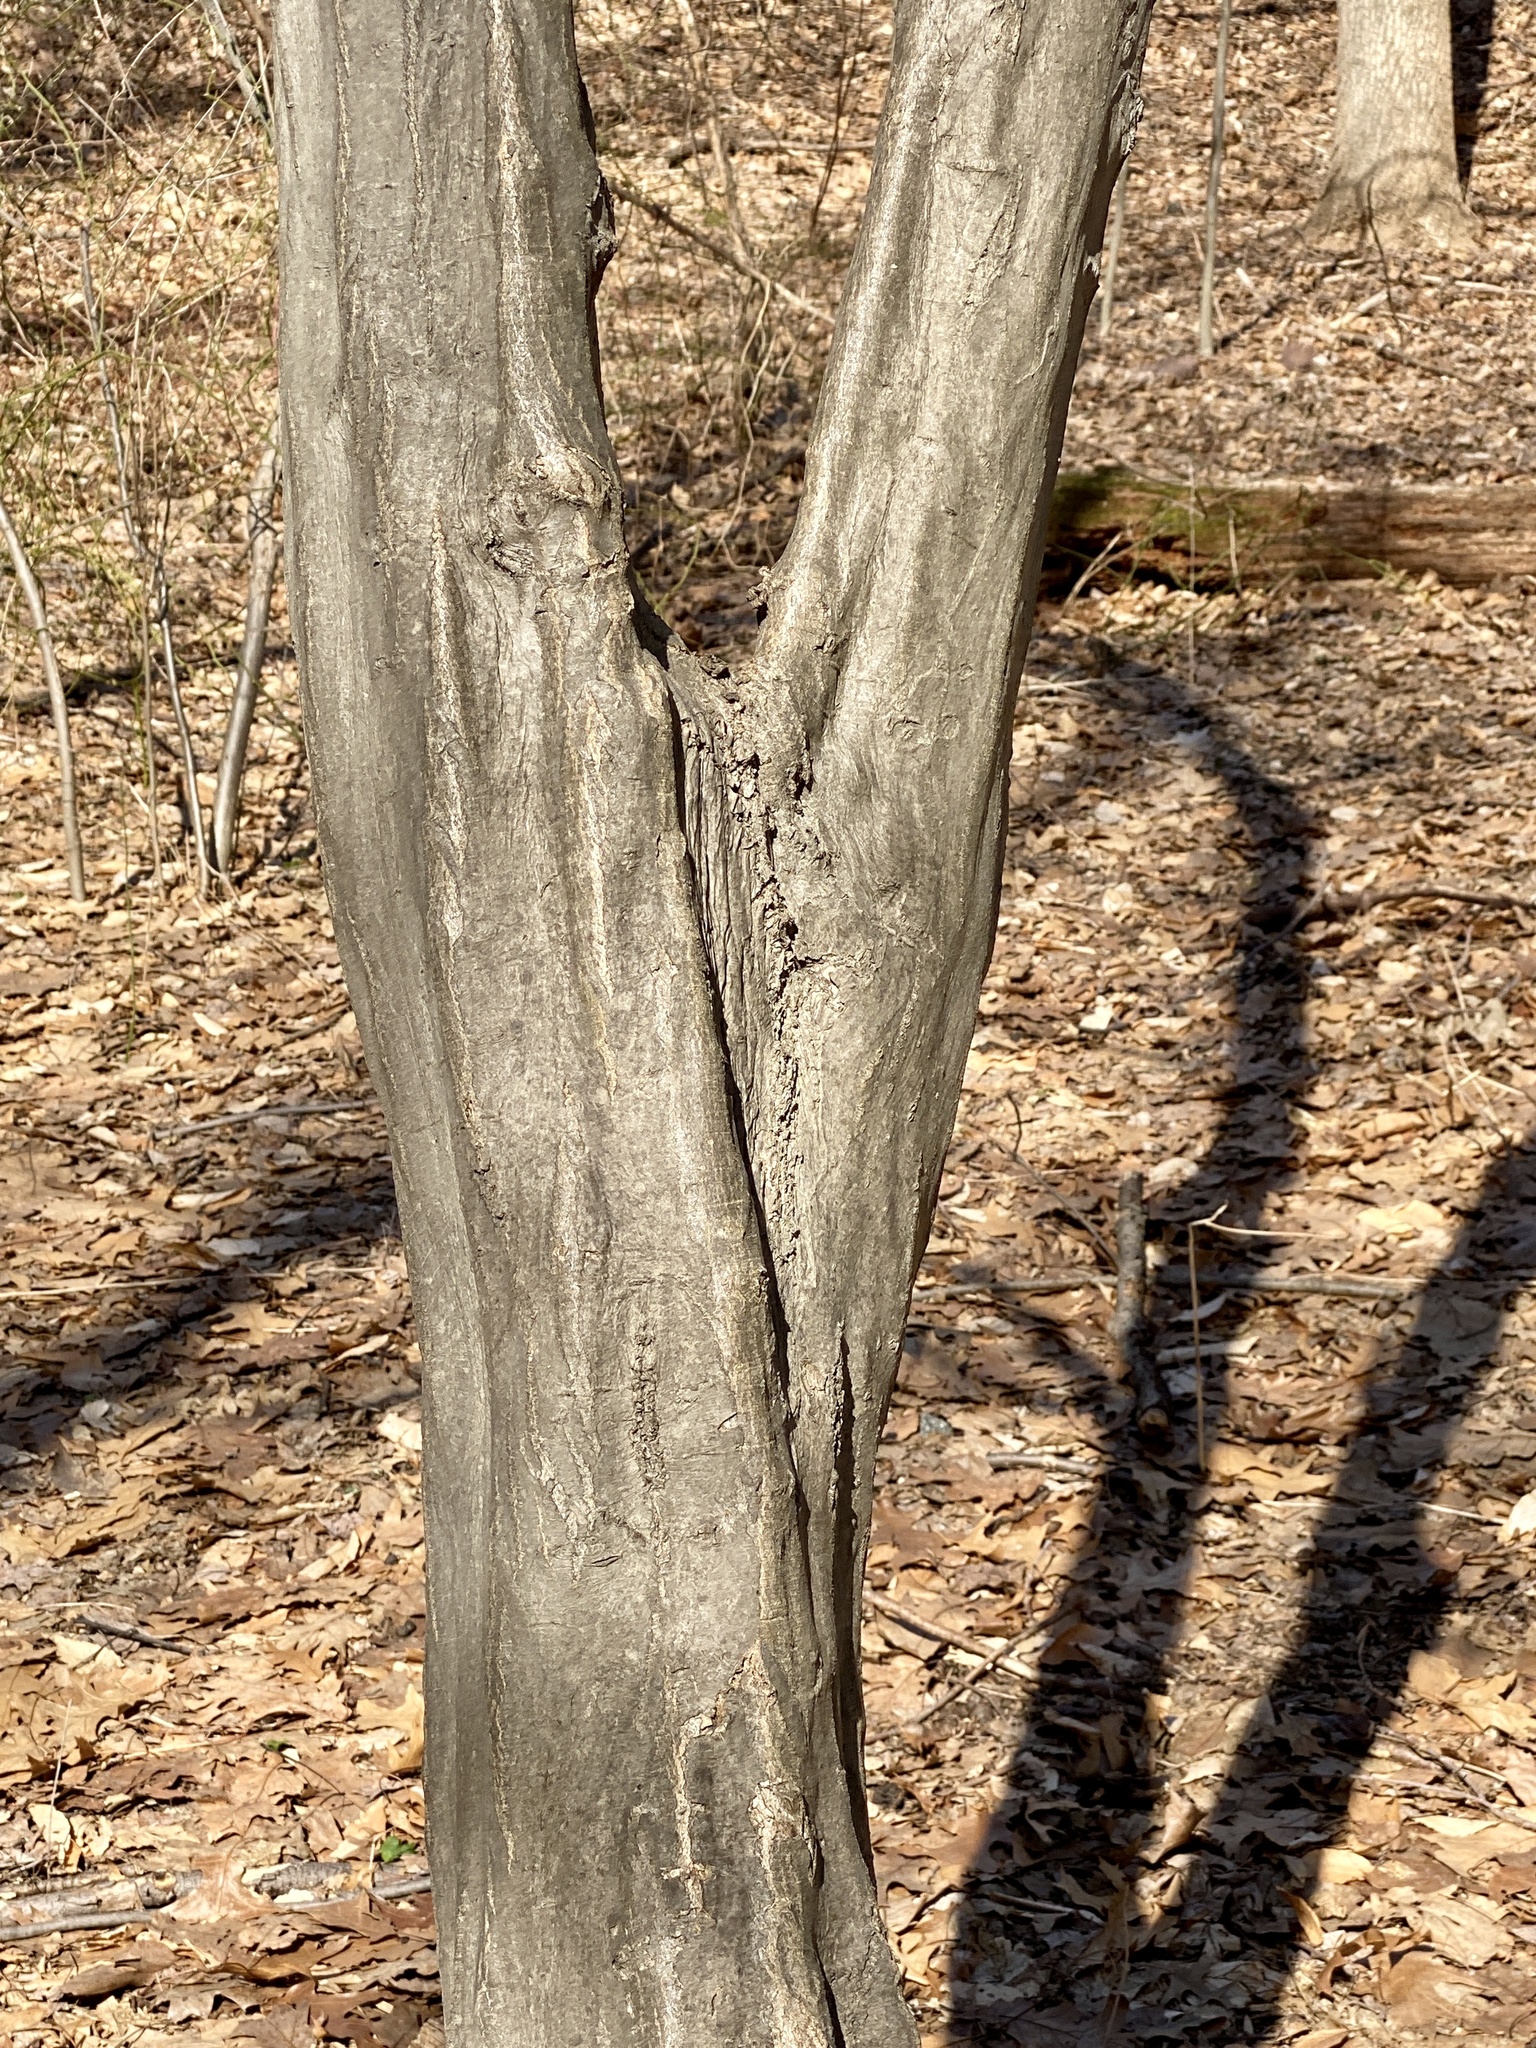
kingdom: Plantae
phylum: Tracheophyta
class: Magnoliopsida
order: Fagales
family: Betulaceae
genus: Carpinus
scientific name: Carpinus caroliniana
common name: American hornbeam
